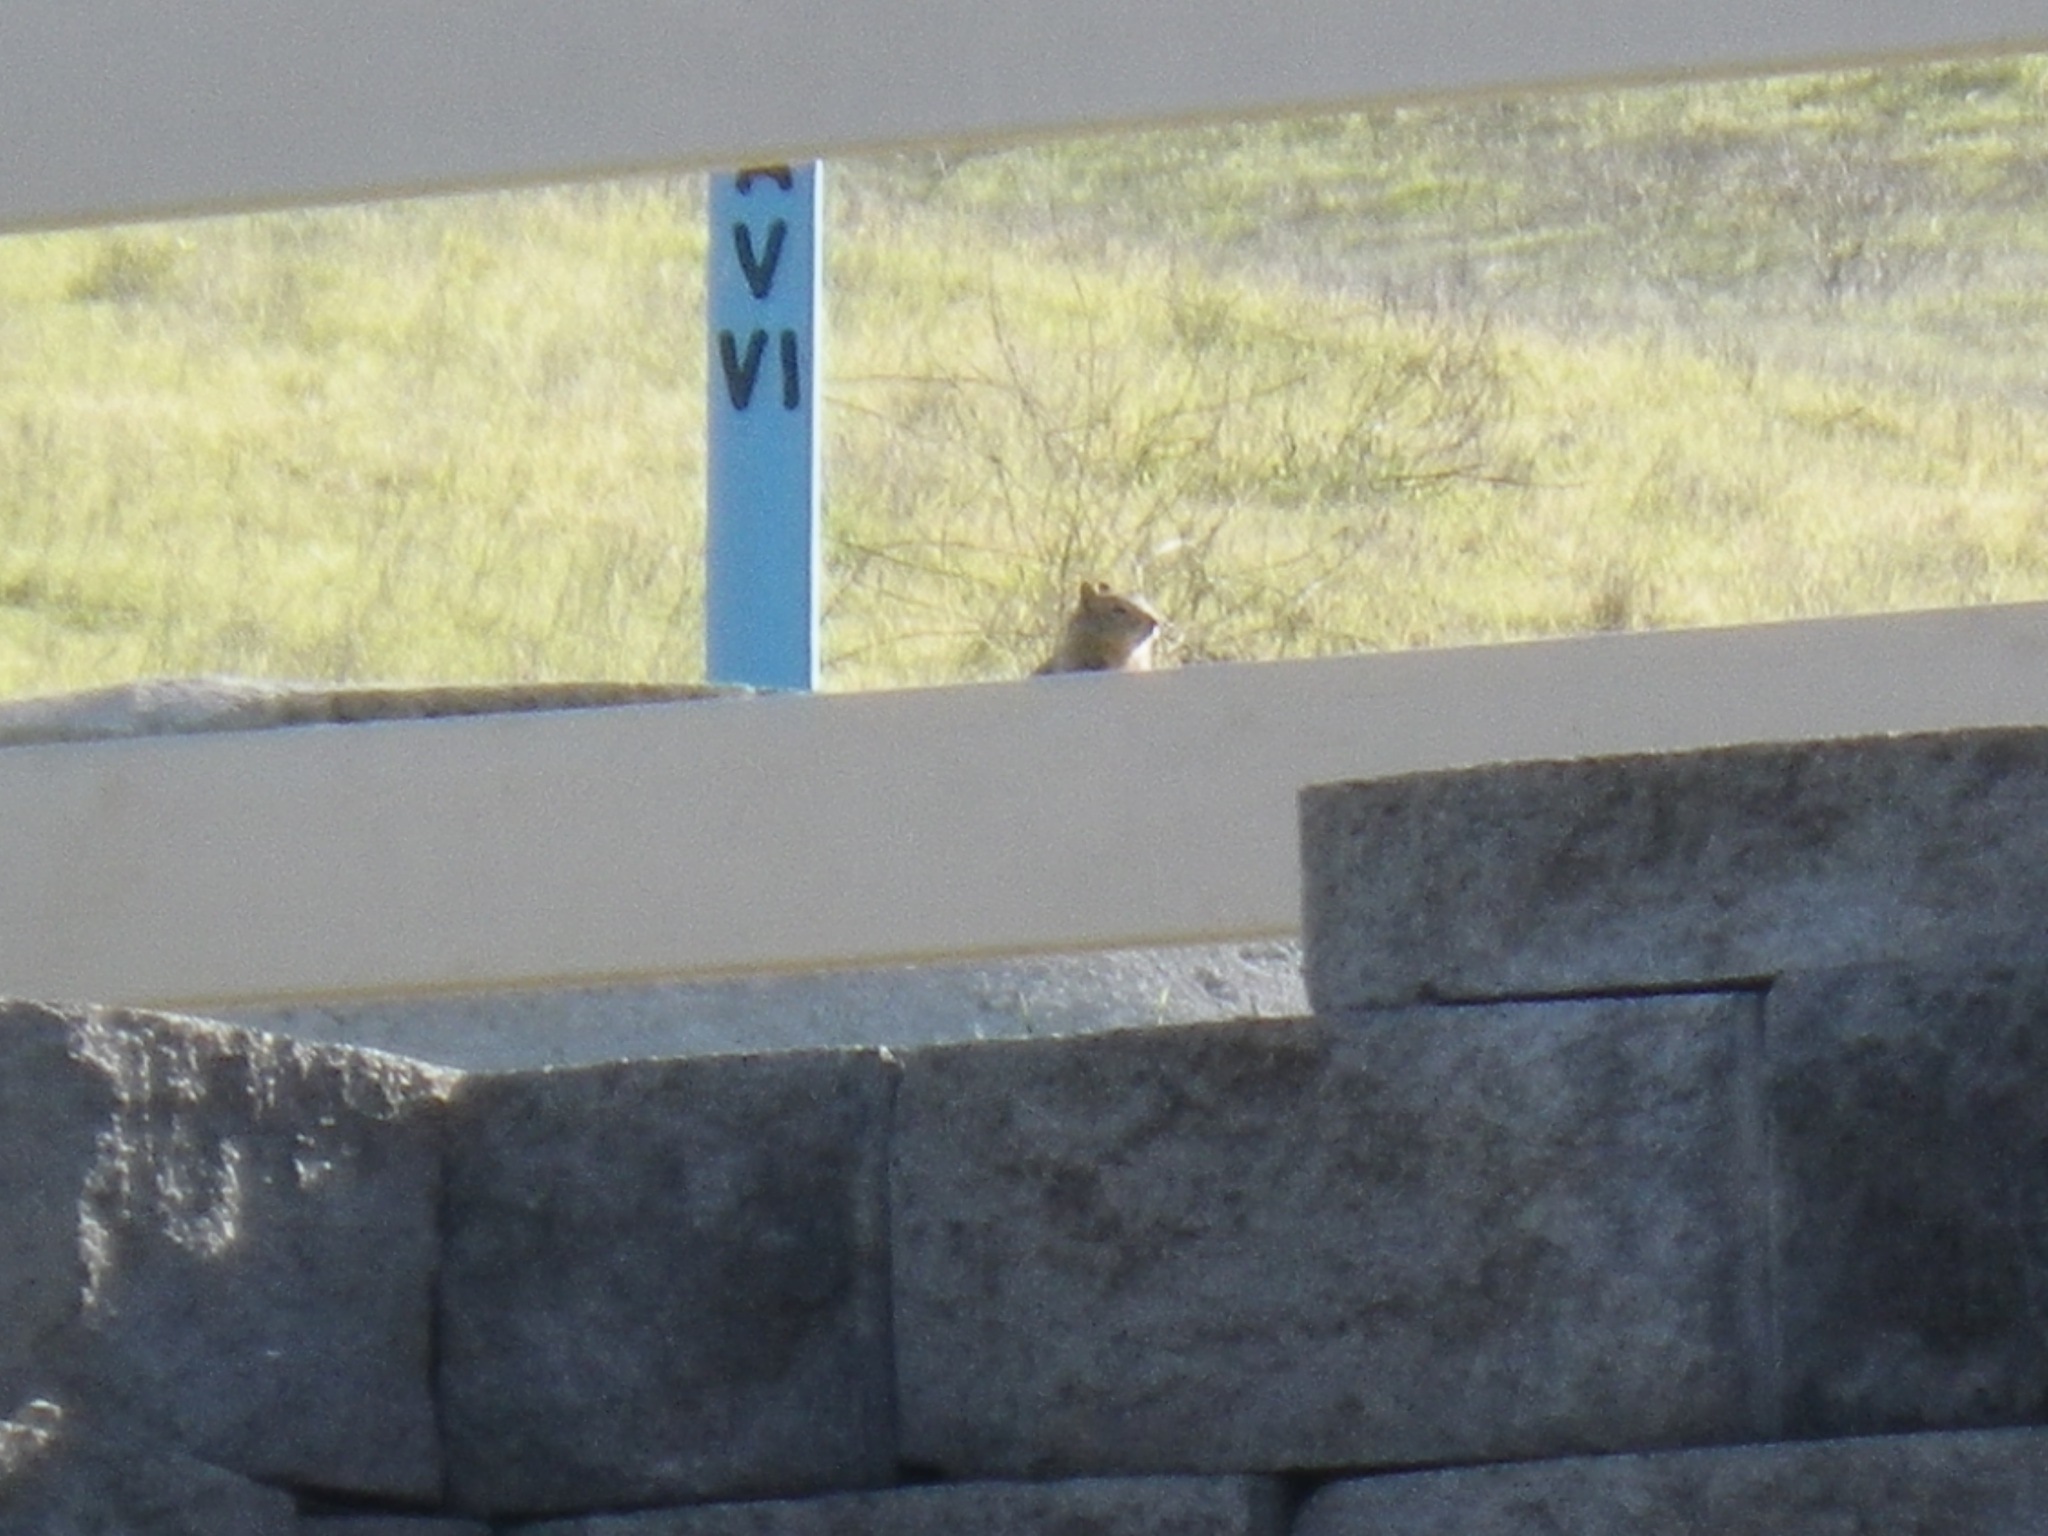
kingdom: Animalia
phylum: Chordata
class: Mammalia
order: Rodentia
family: Sciuridae
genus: Otospermophilus
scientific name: Otospermophilus beecheyi
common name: California ground squirrel
